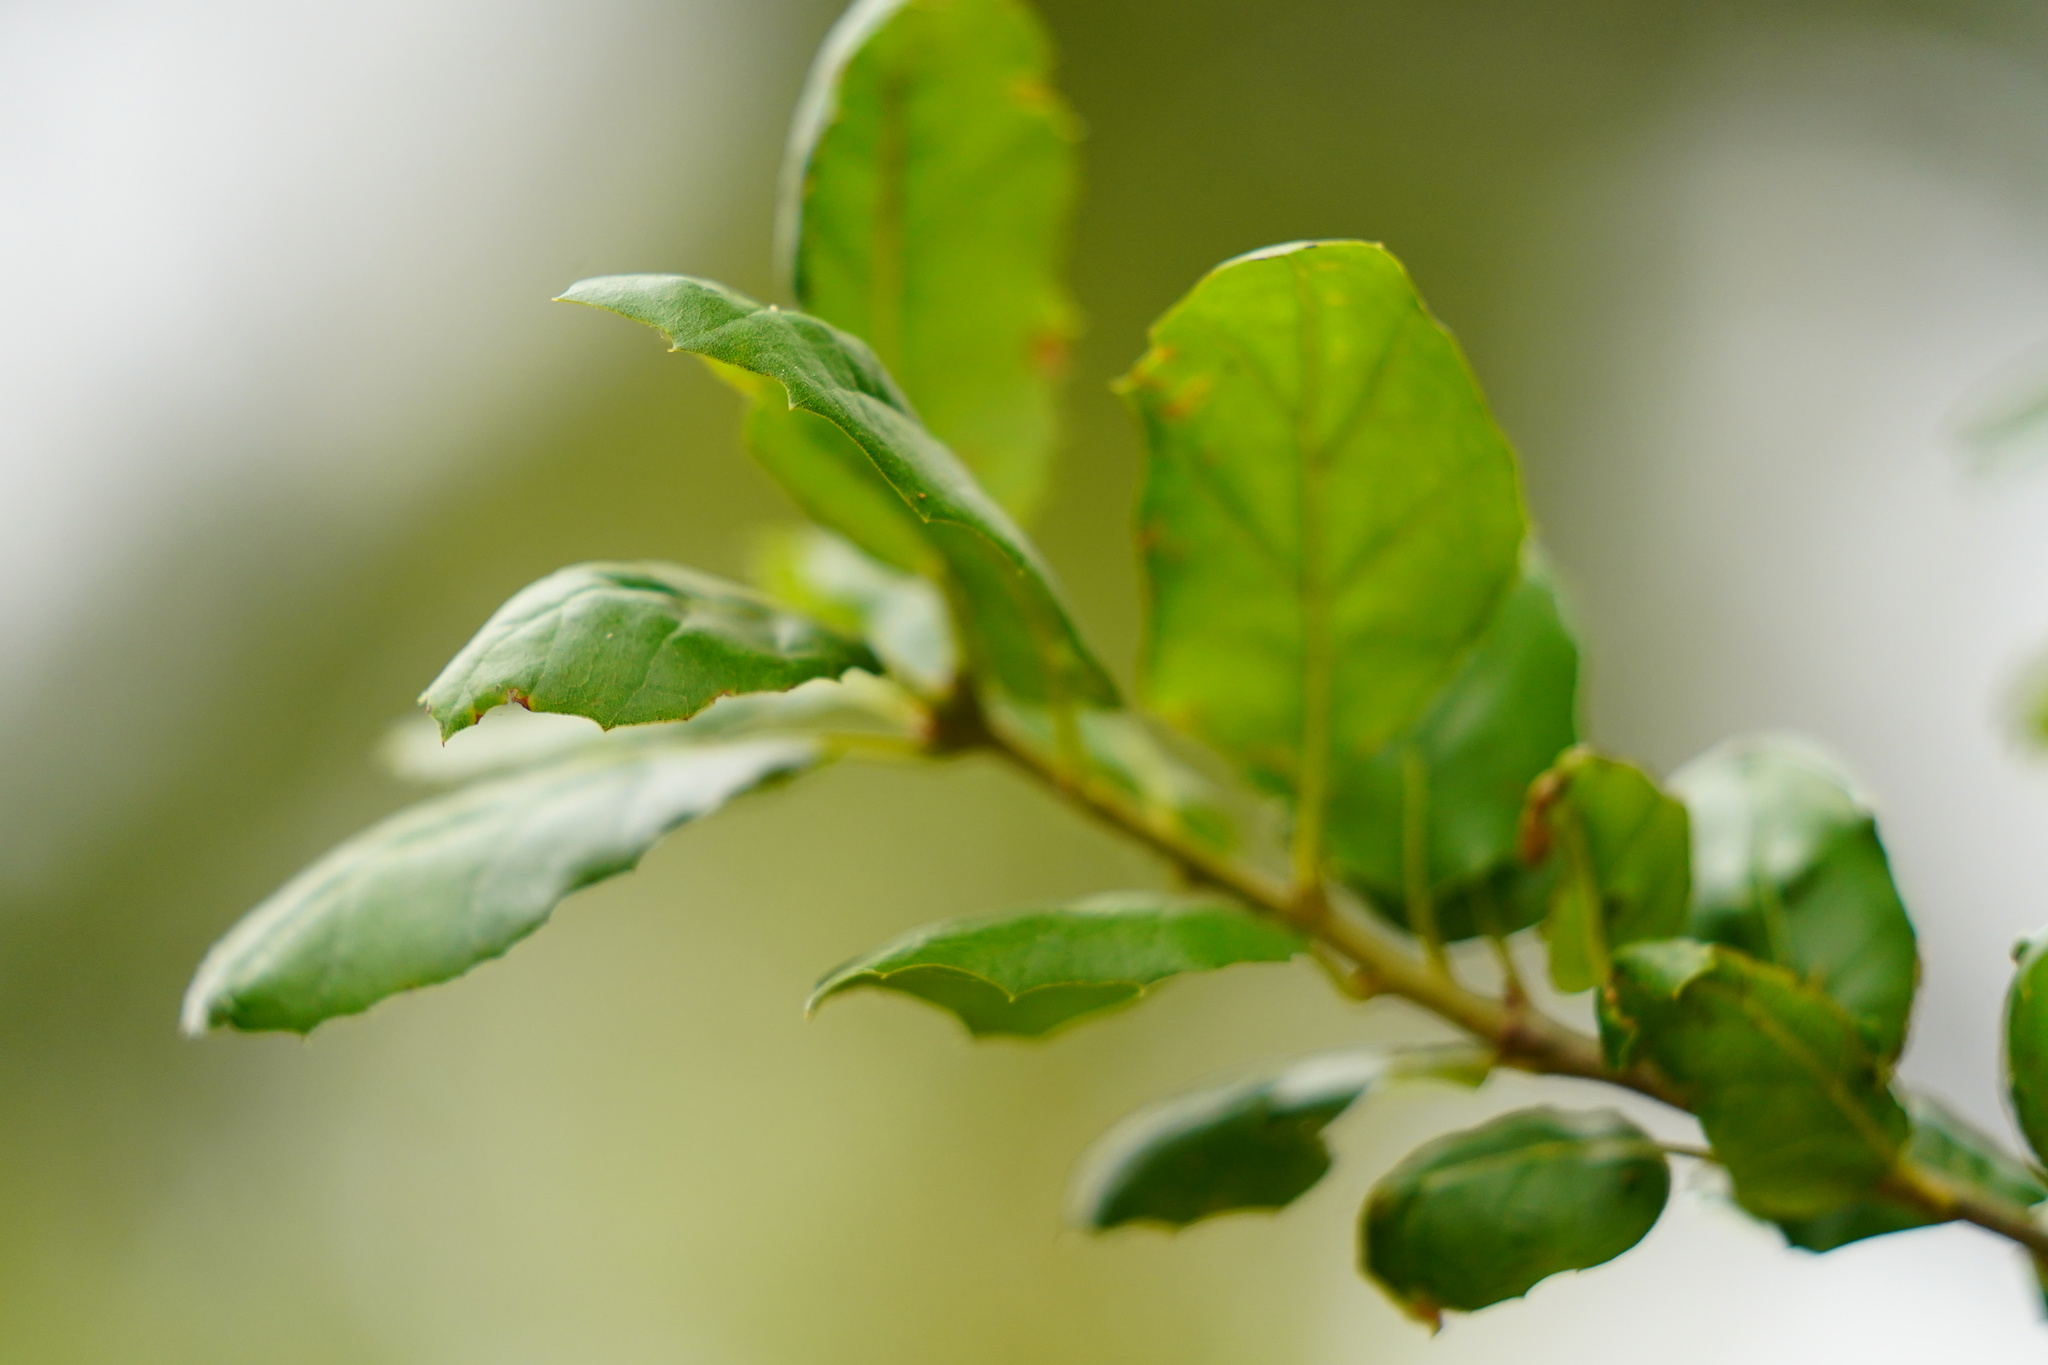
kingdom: Plantae
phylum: Tracheophyta
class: Magnoliopsida
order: Fagales
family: Fagaceae
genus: Quercus
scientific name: Quercus agrifolia
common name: California live oak
